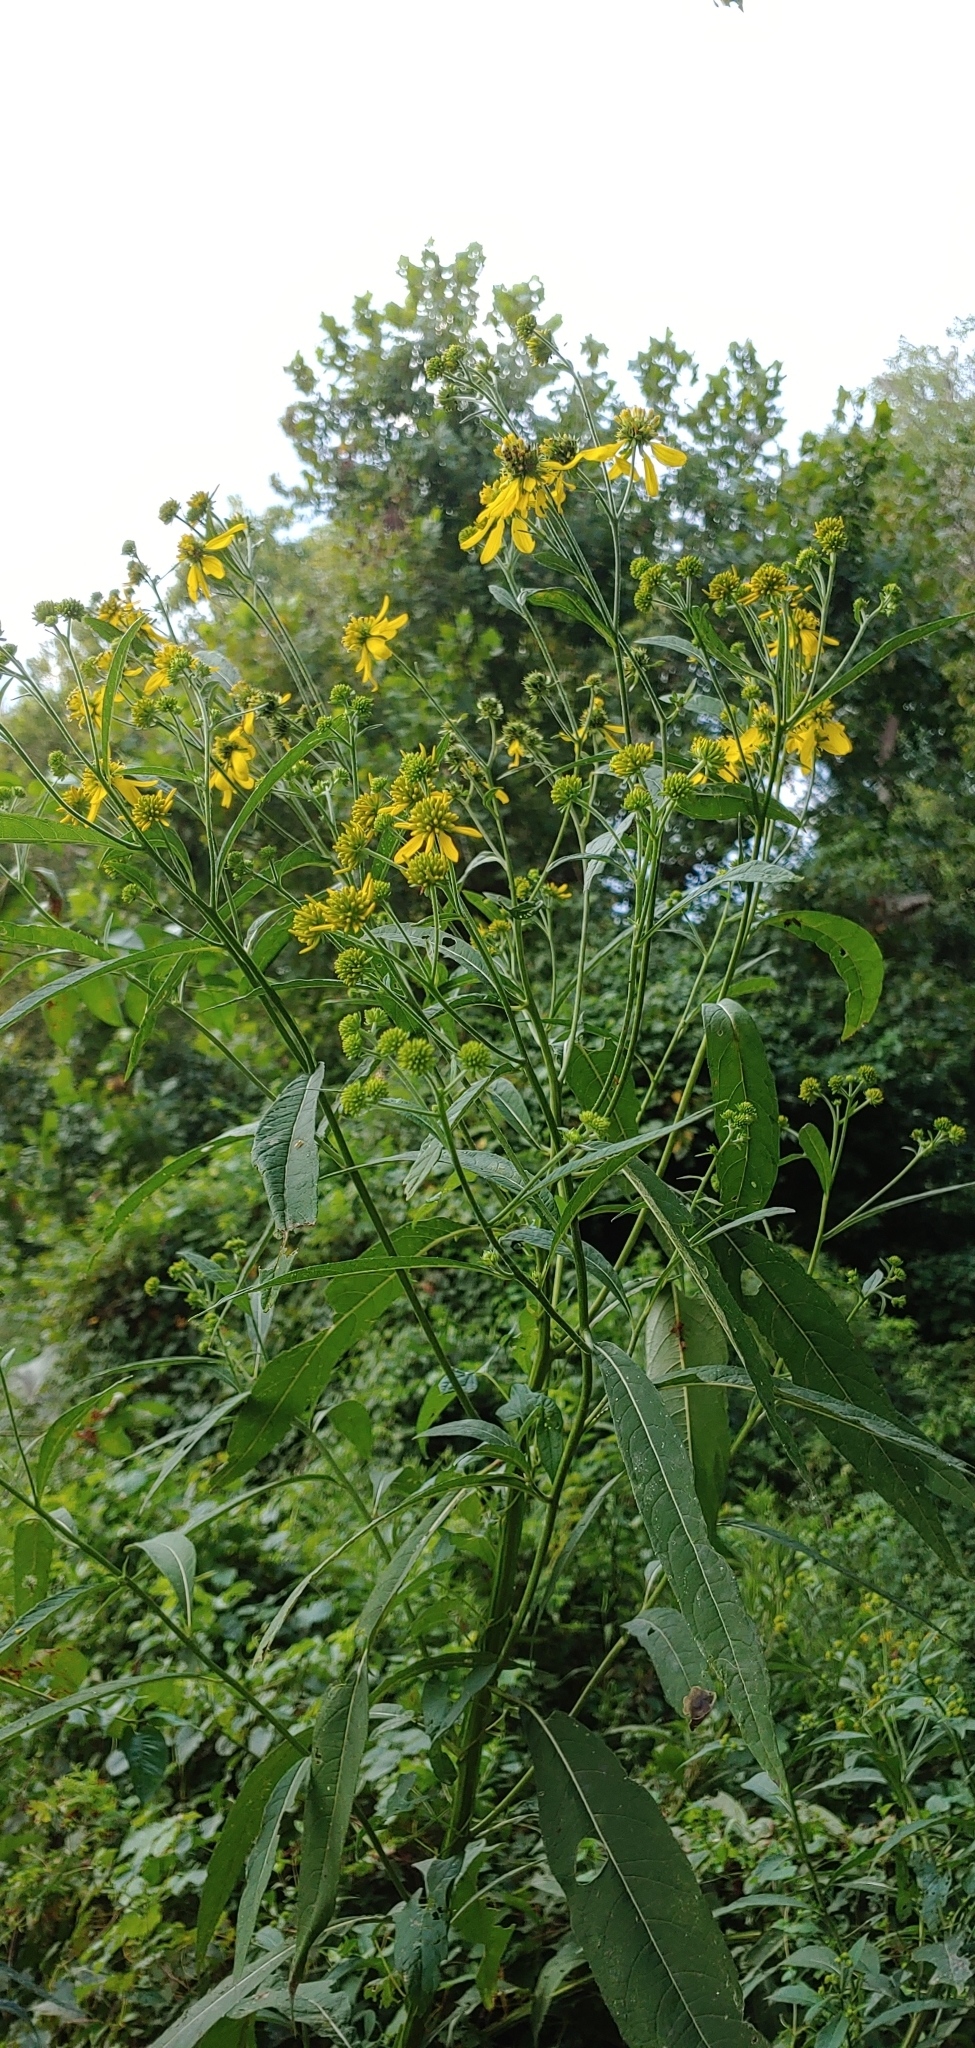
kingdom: Plantae
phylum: Tracheophyta
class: Magnoliopsida
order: Asterales
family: Asteraceae
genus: Verbesina
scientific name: Verbesina alternifolia
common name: Wingstem
